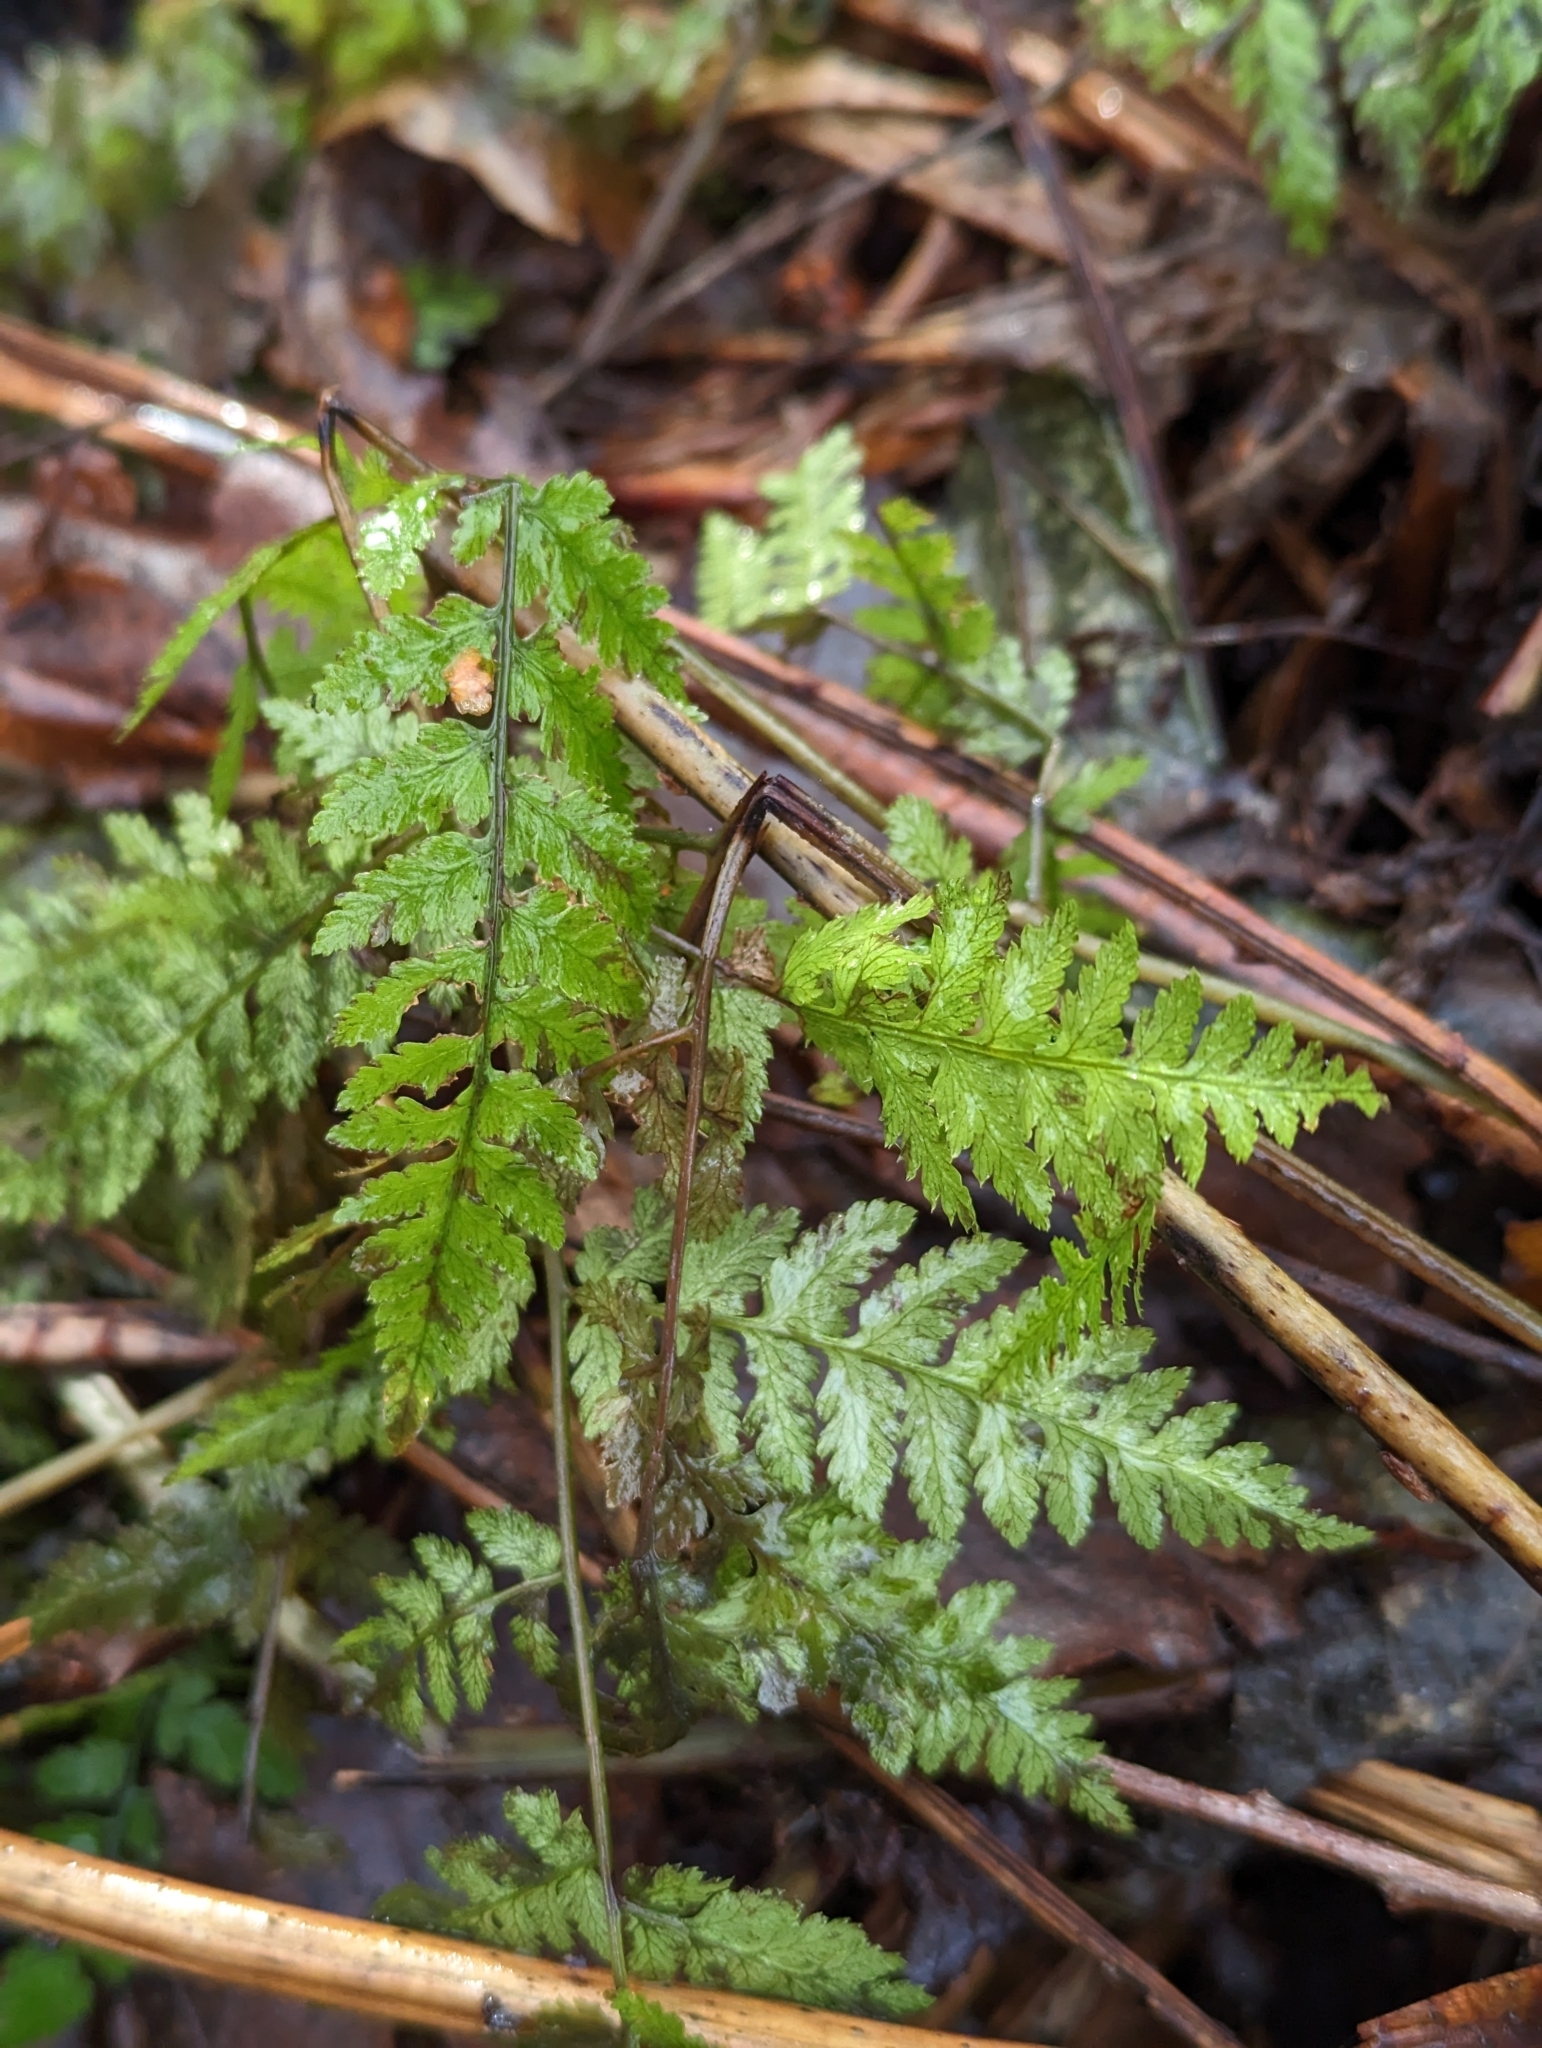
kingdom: Plantae
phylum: Tracheophyta
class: Polypodiopsida
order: Polypodiales
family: Dryopteridaceae
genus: Dryopteris
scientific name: Dryopteris expansa
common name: Northern buckler fern
